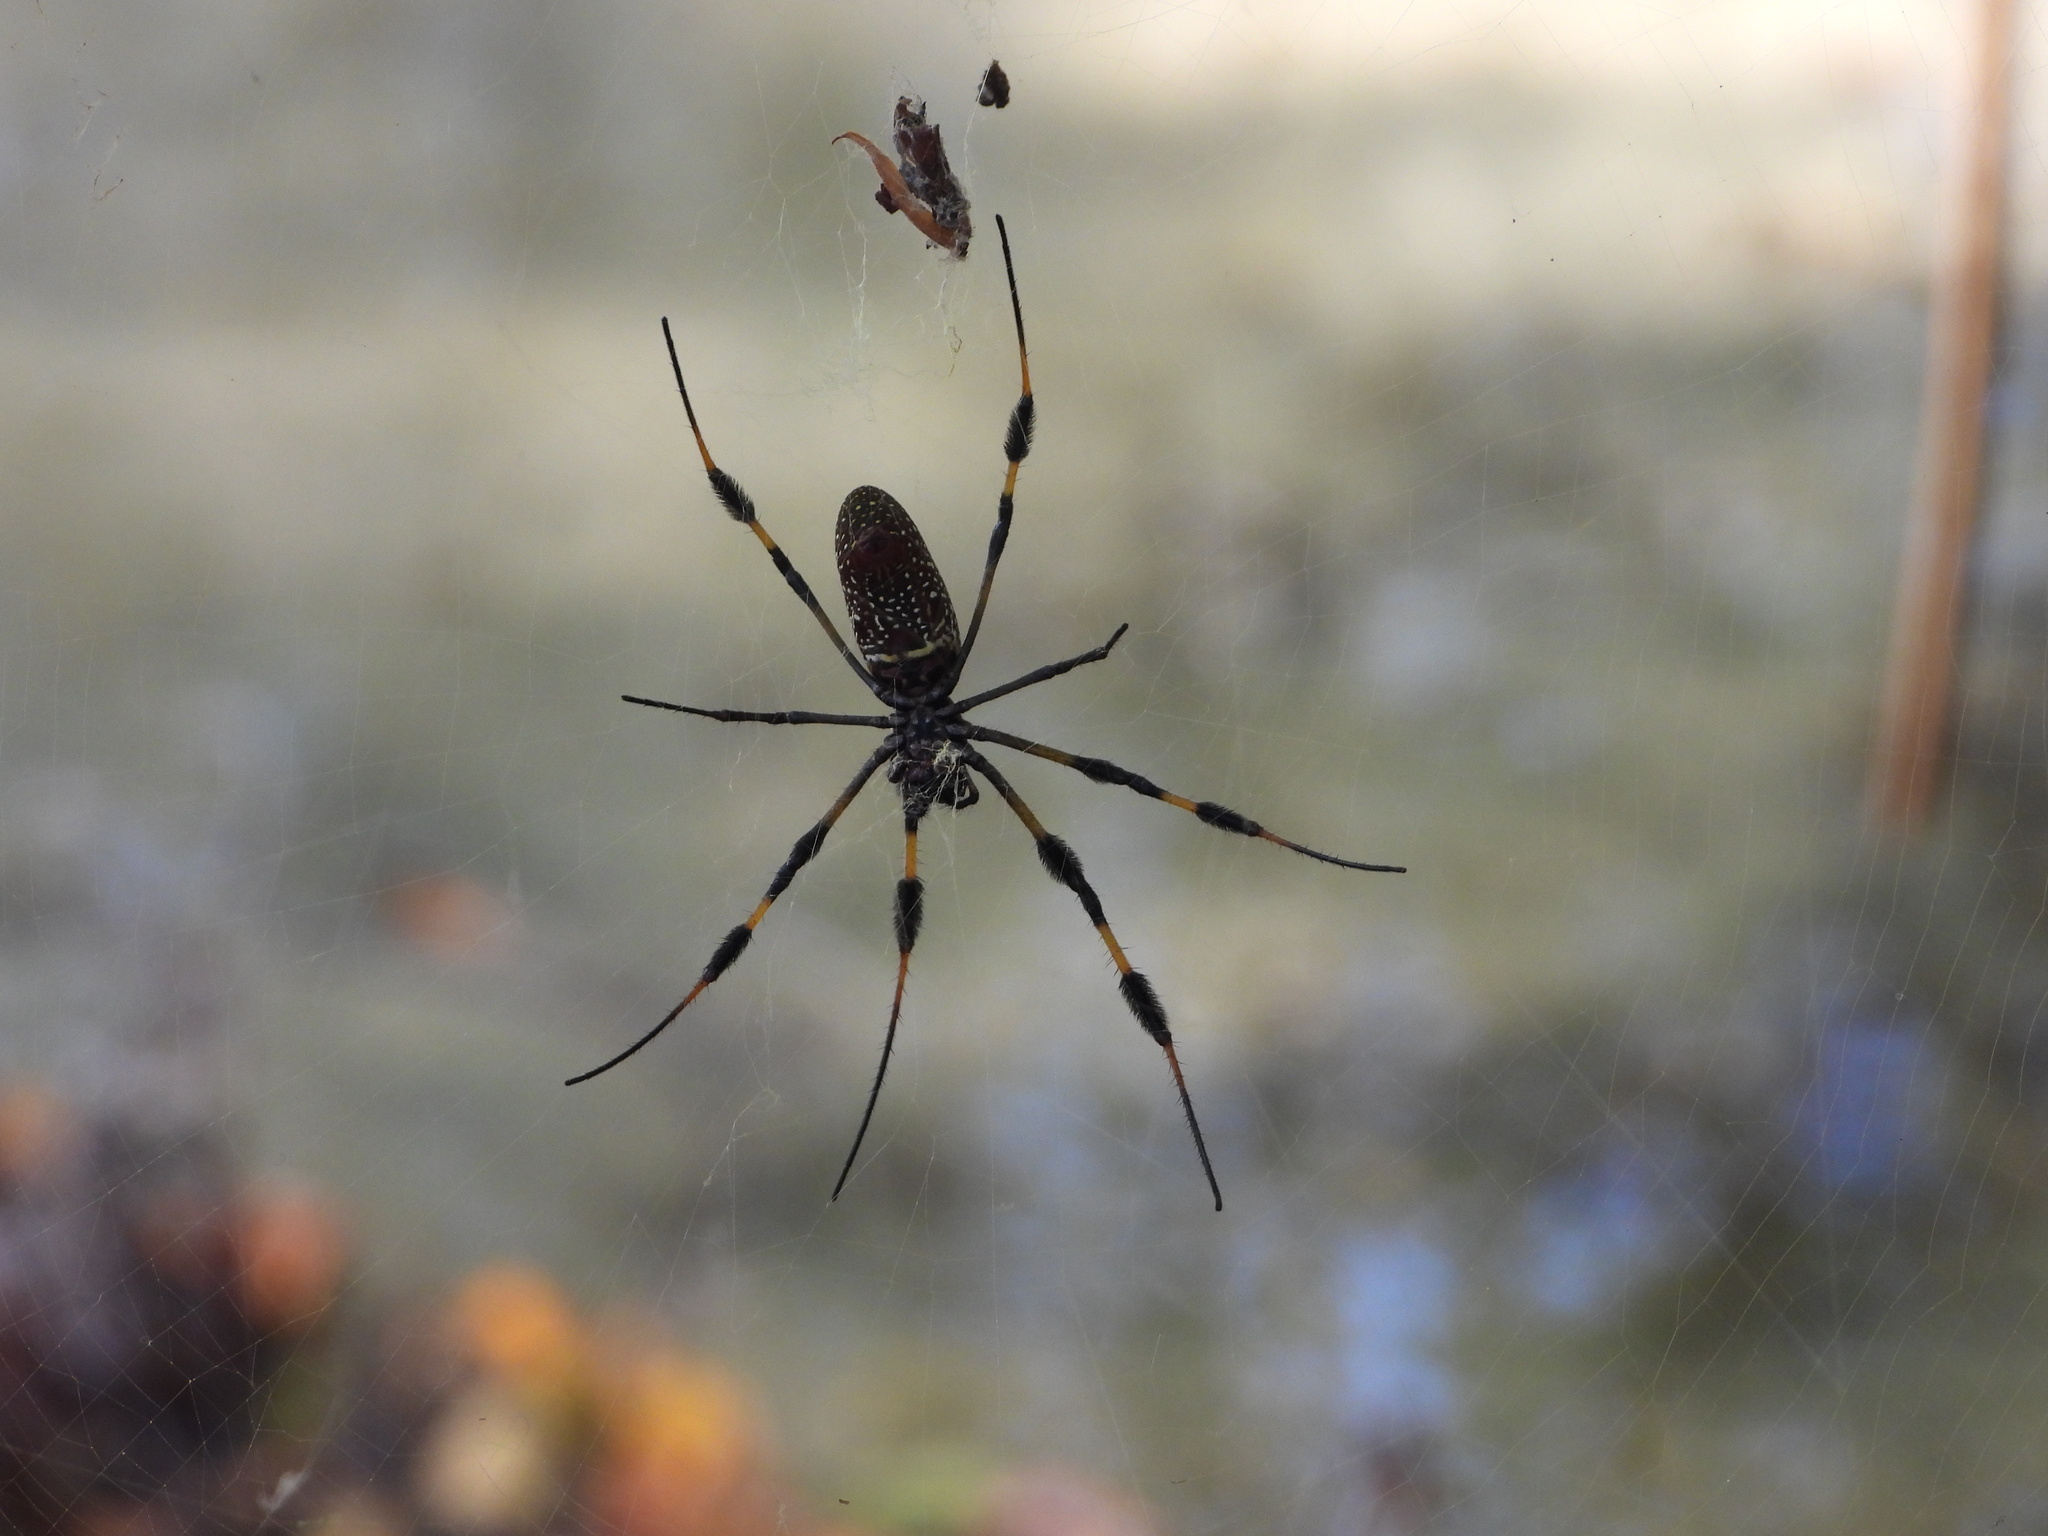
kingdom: Animalia
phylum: Arthropoda
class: Arachnida
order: Araneae
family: Araneidae
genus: Trichonephila
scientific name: Trichonephila clavipes
